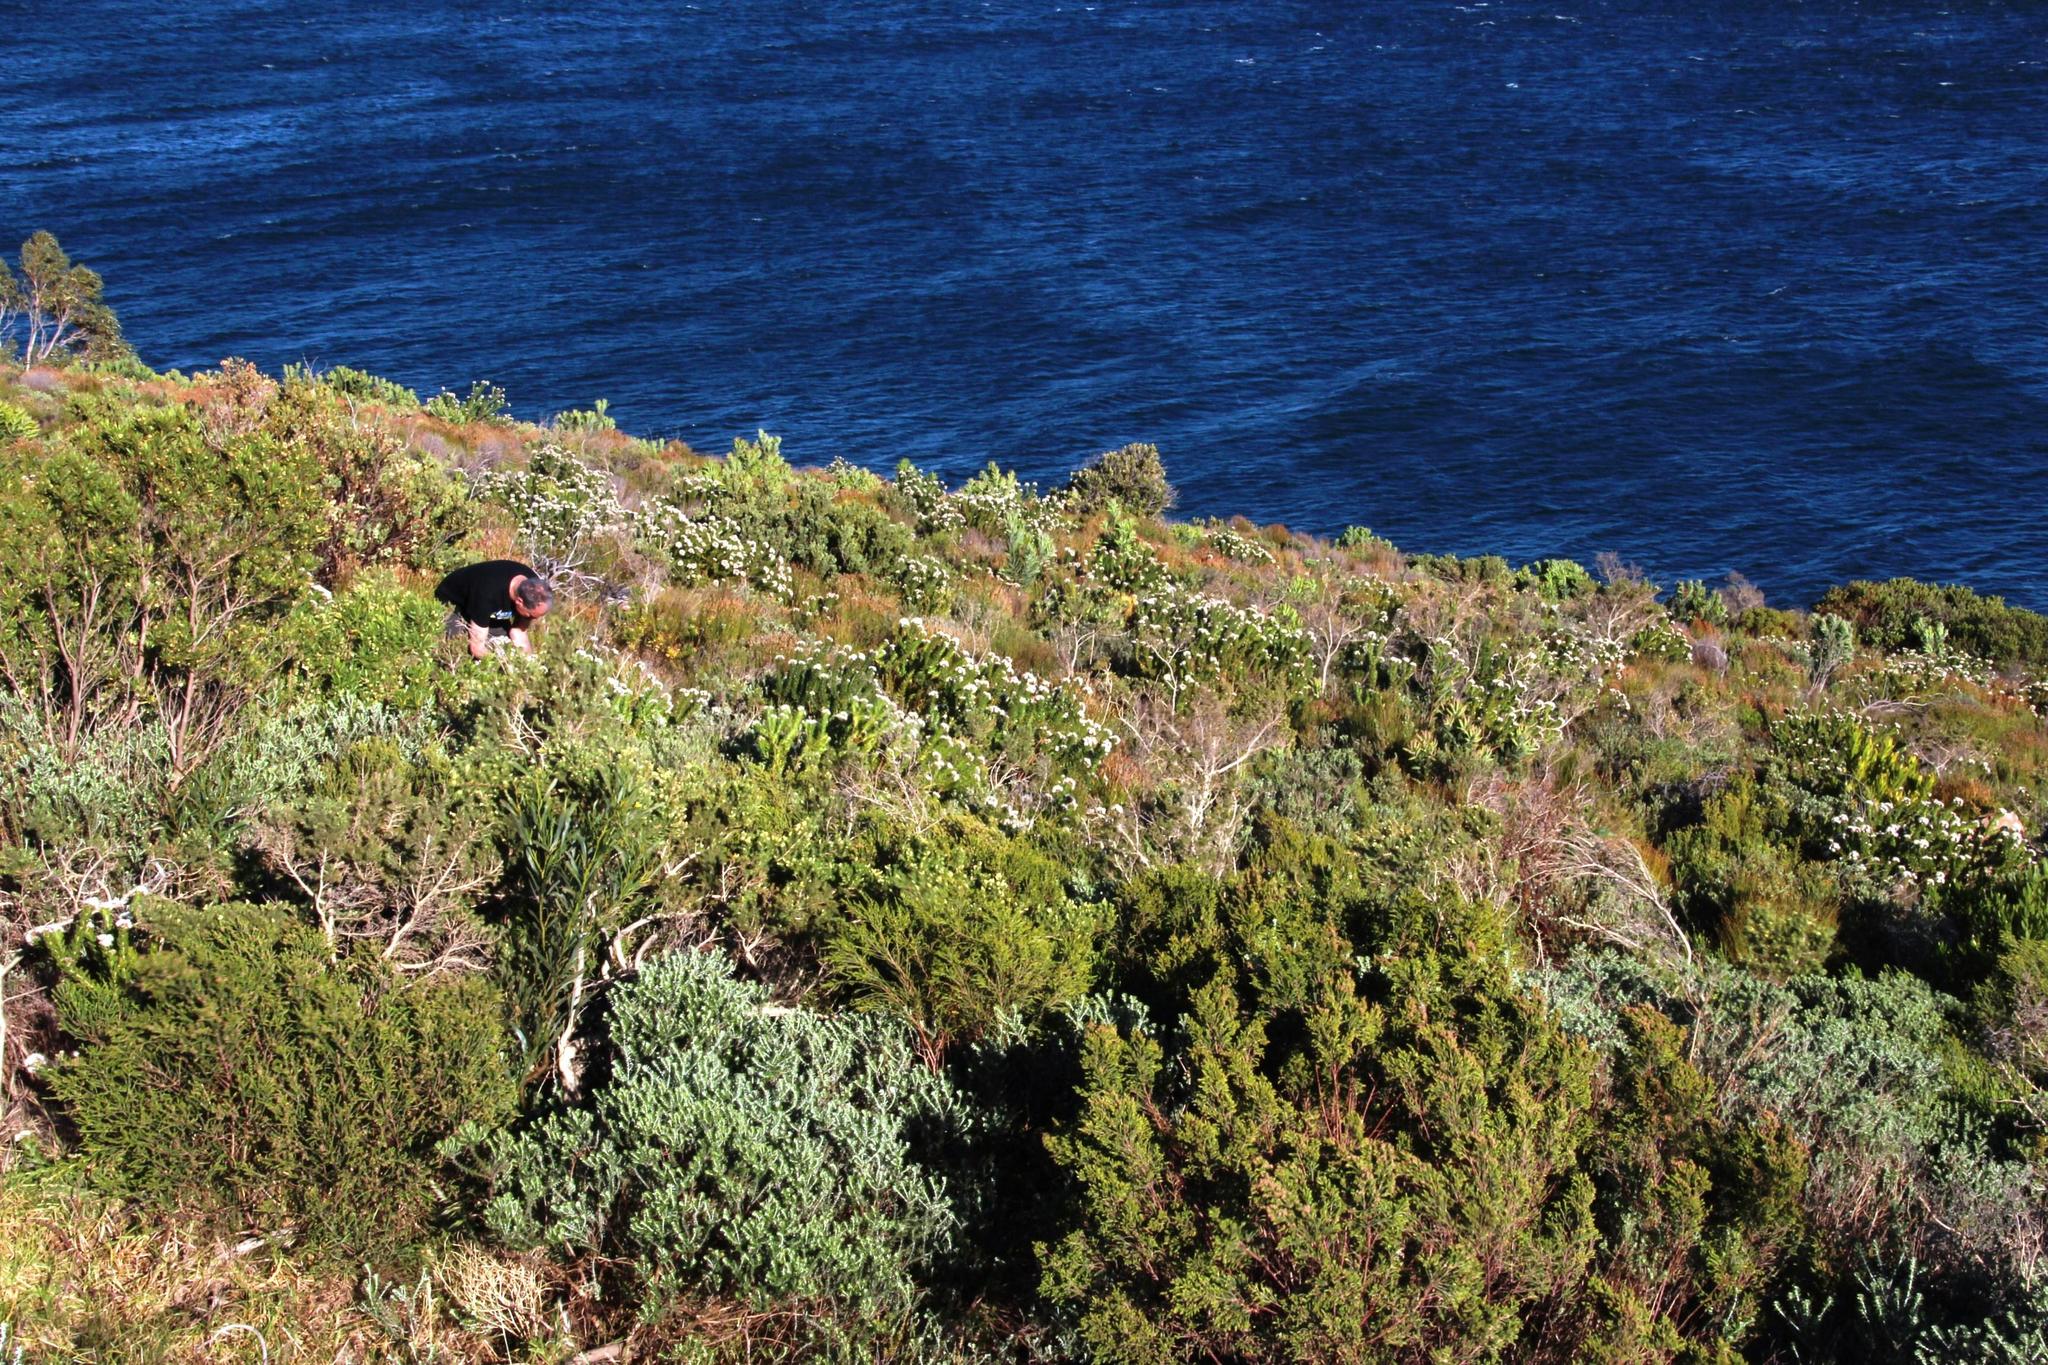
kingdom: Plantae
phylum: Tracheophyta
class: Magnoliopsida
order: Proteales
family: Proteaceae
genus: Leucospermum
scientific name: Leucospermum bolusii
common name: Gordon's bay pincushion
